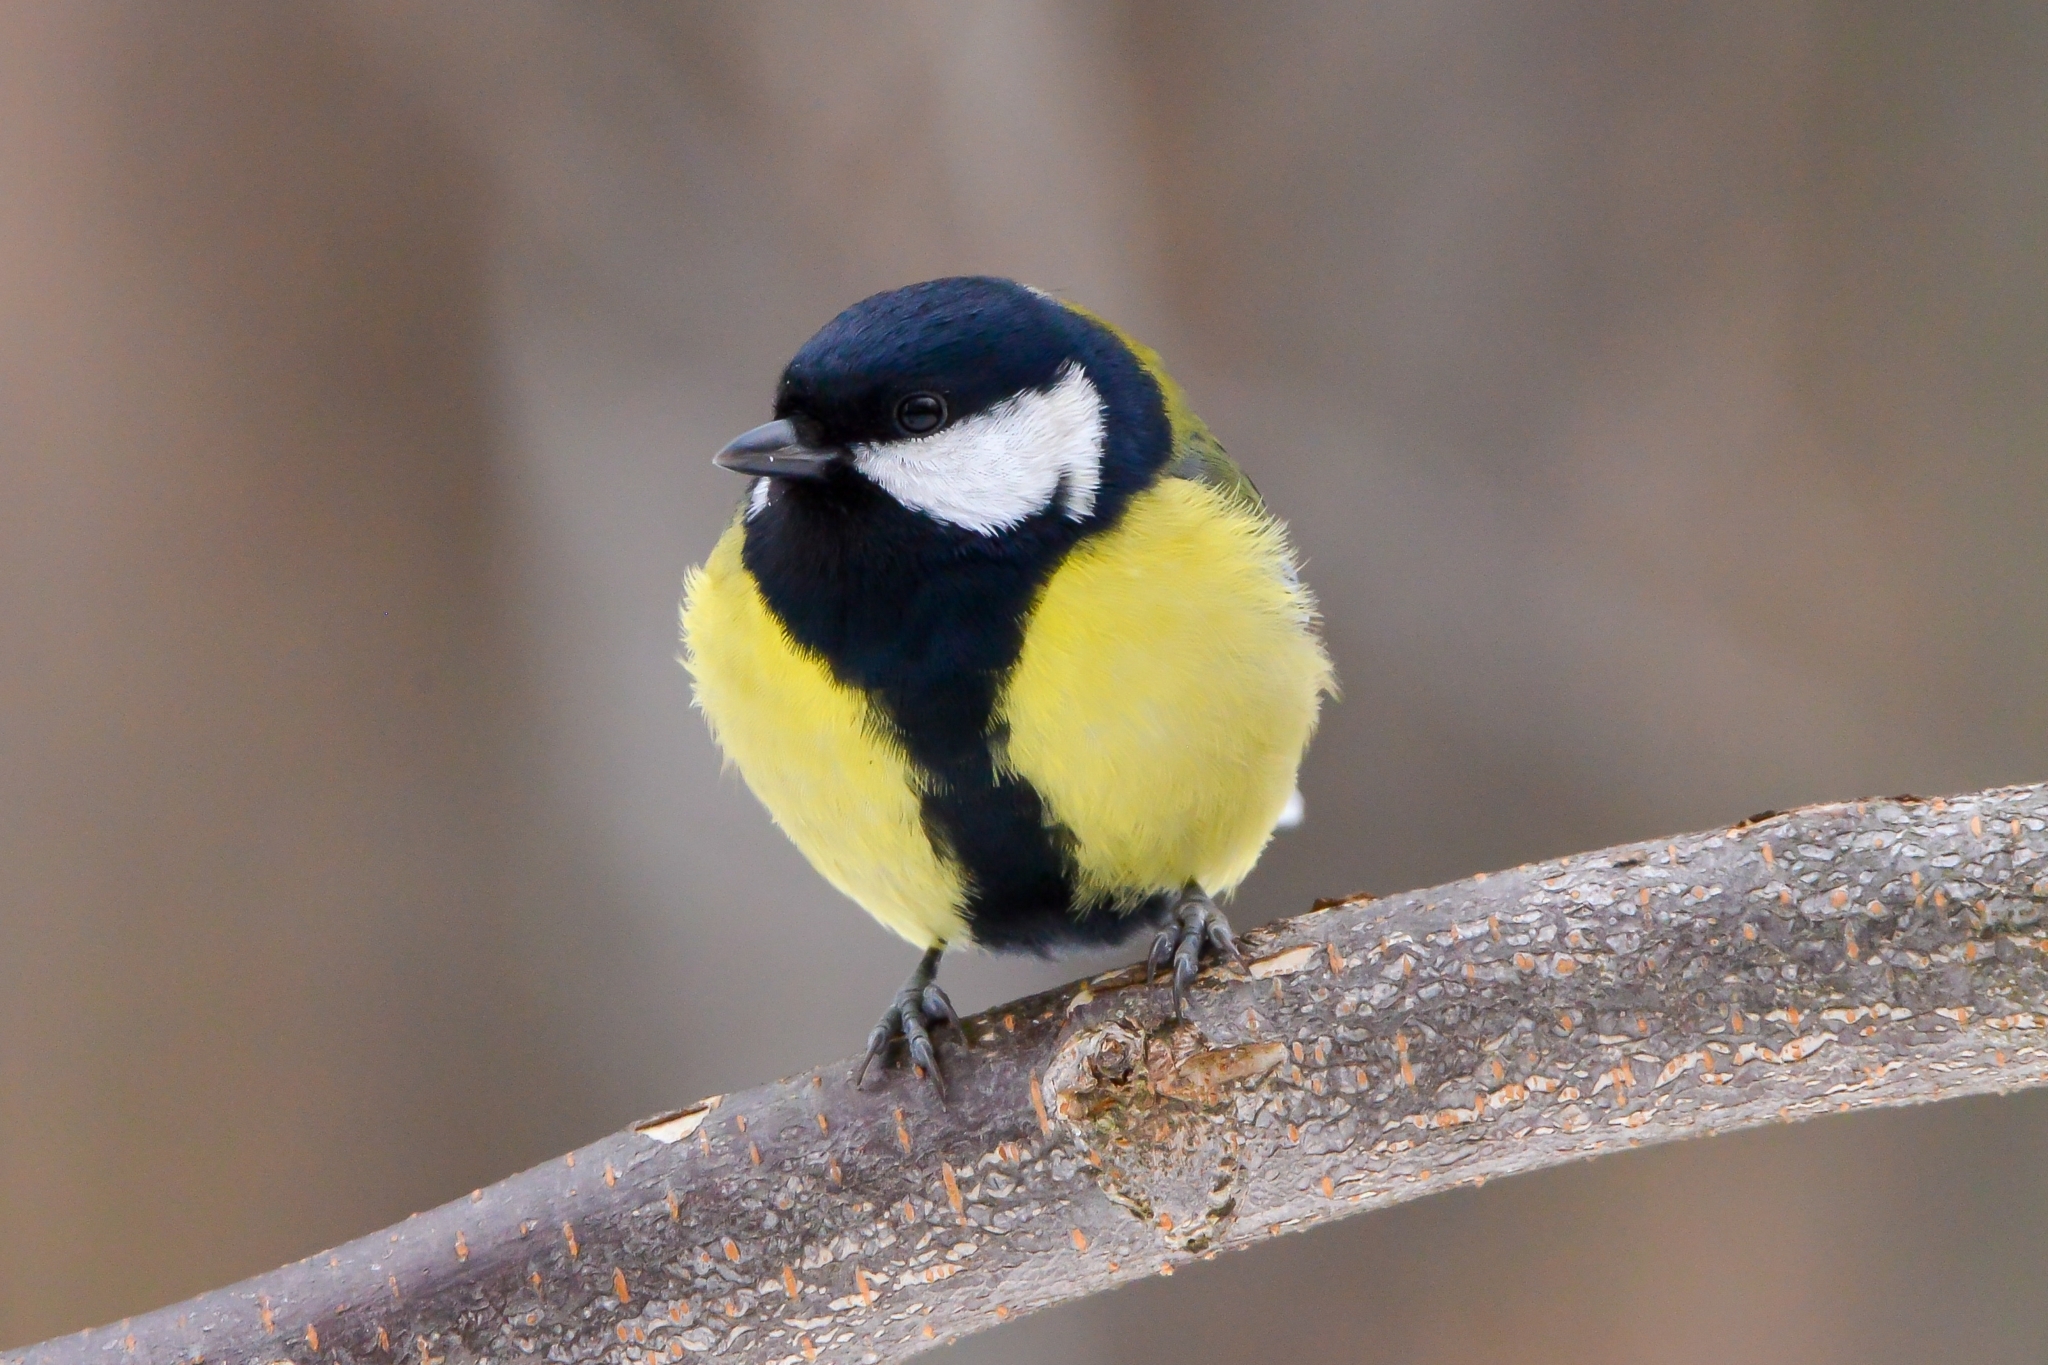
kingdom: Animalia
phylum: Chordata
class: Aves
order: Passeriformes
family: Paridae
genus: Parus
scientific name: Parus major
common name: Great tit
